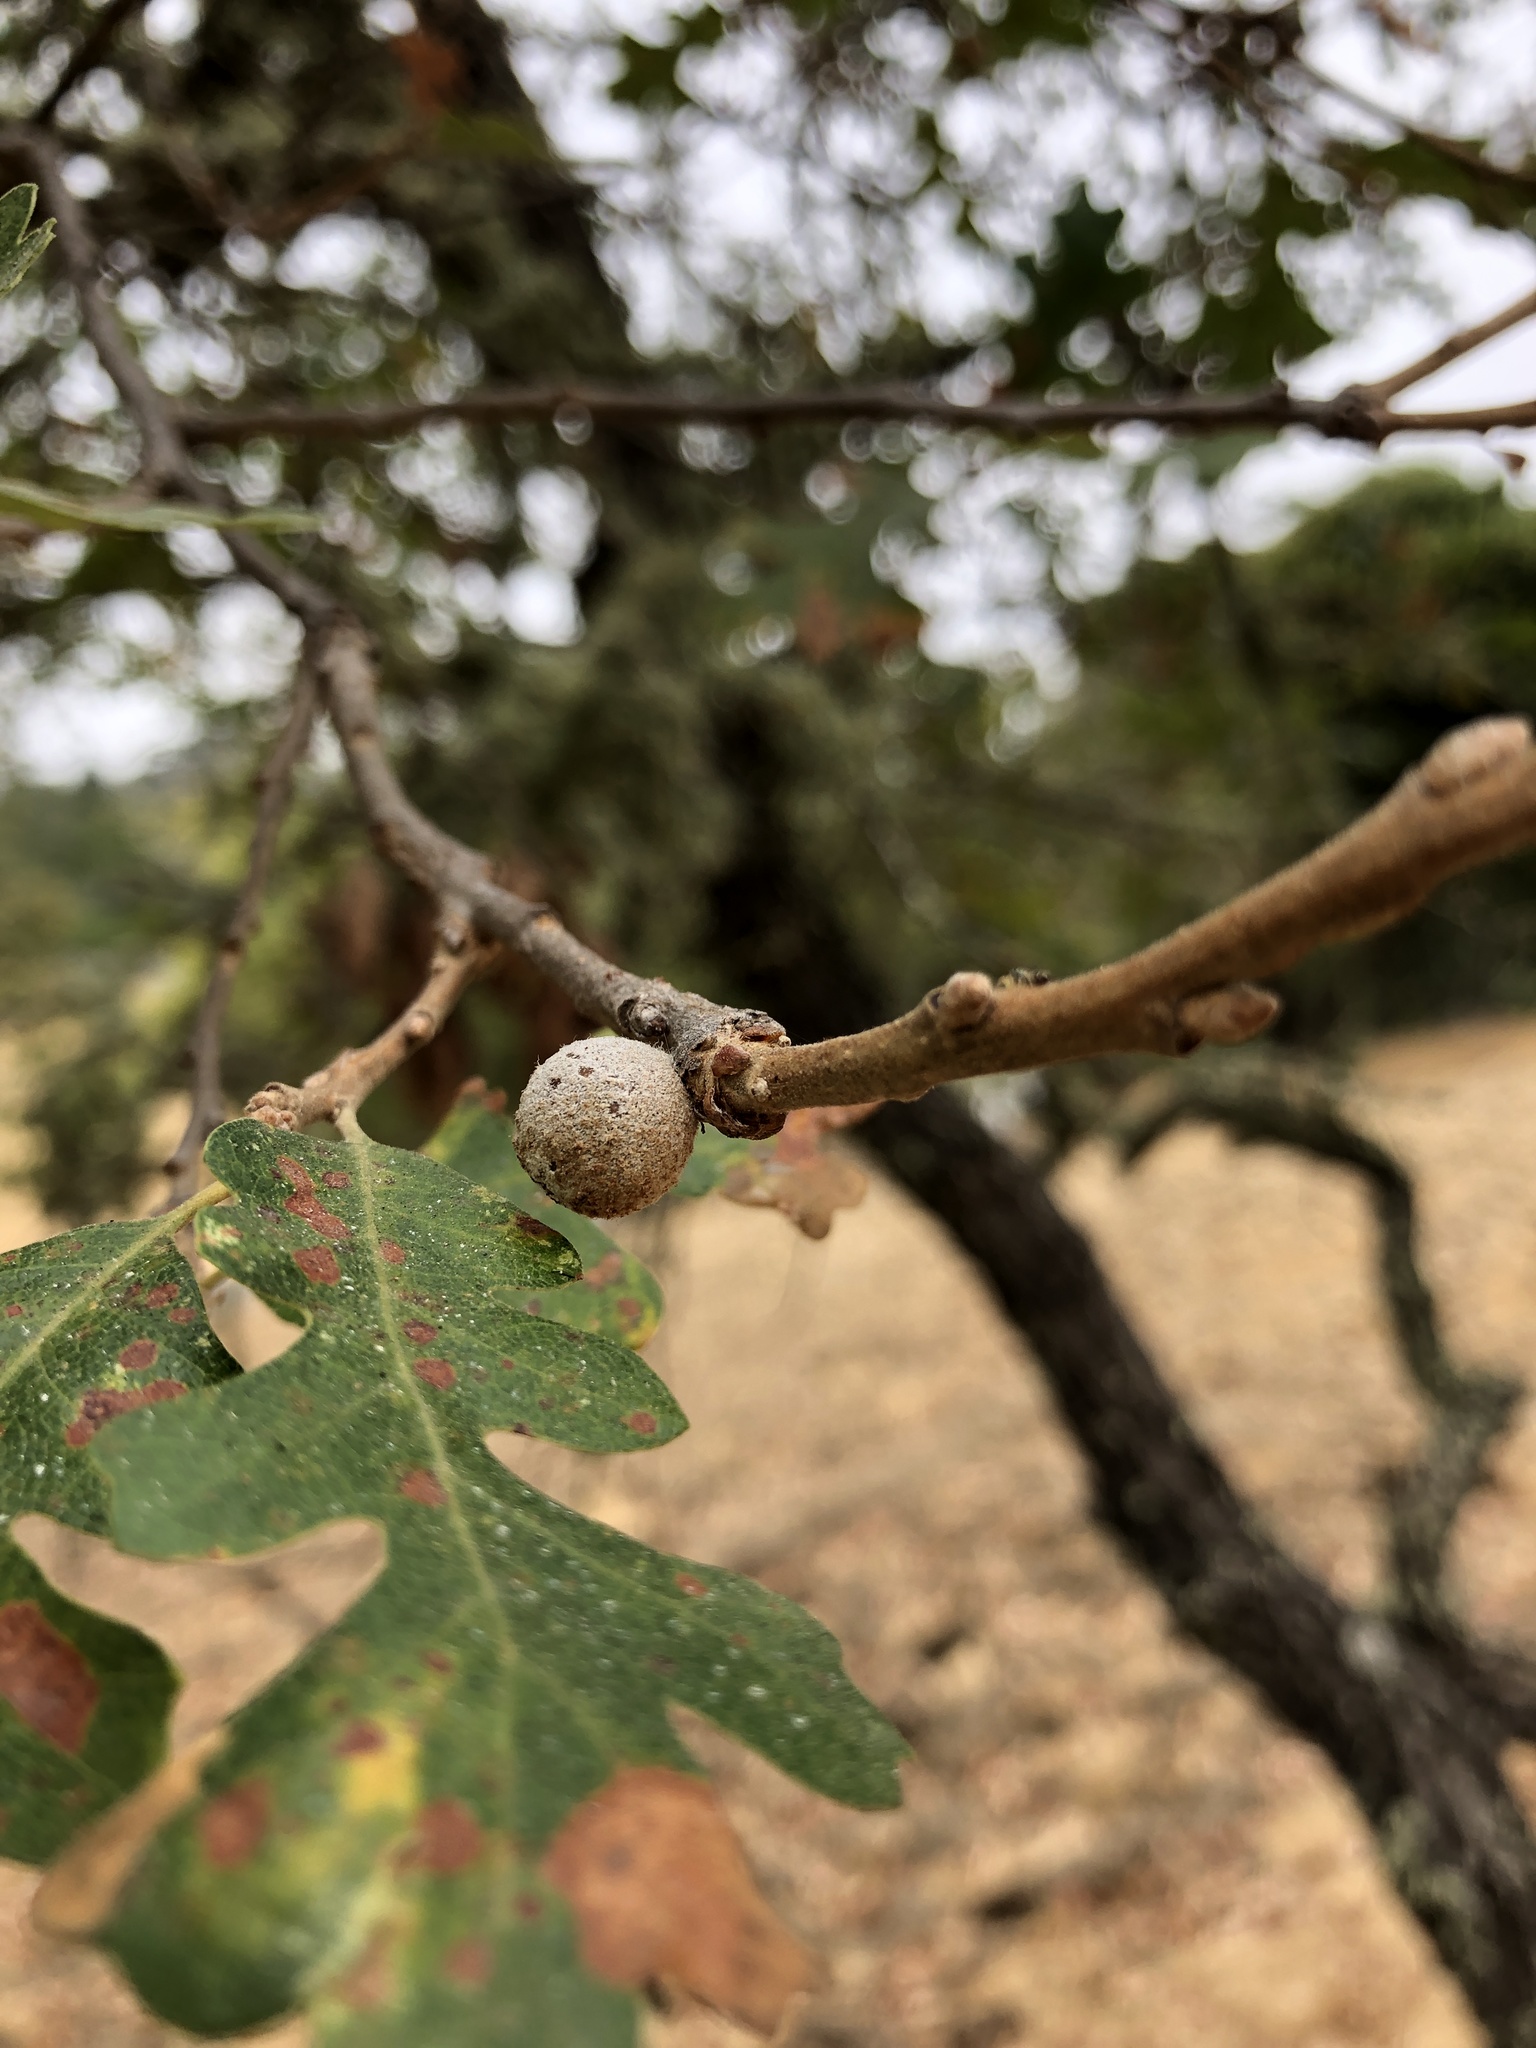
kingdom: Animalia
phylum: Arthropoda
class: Insecta
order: Hymenoptera
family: Cynipidae
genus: Burnettweldia
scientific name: Burnettweldia
